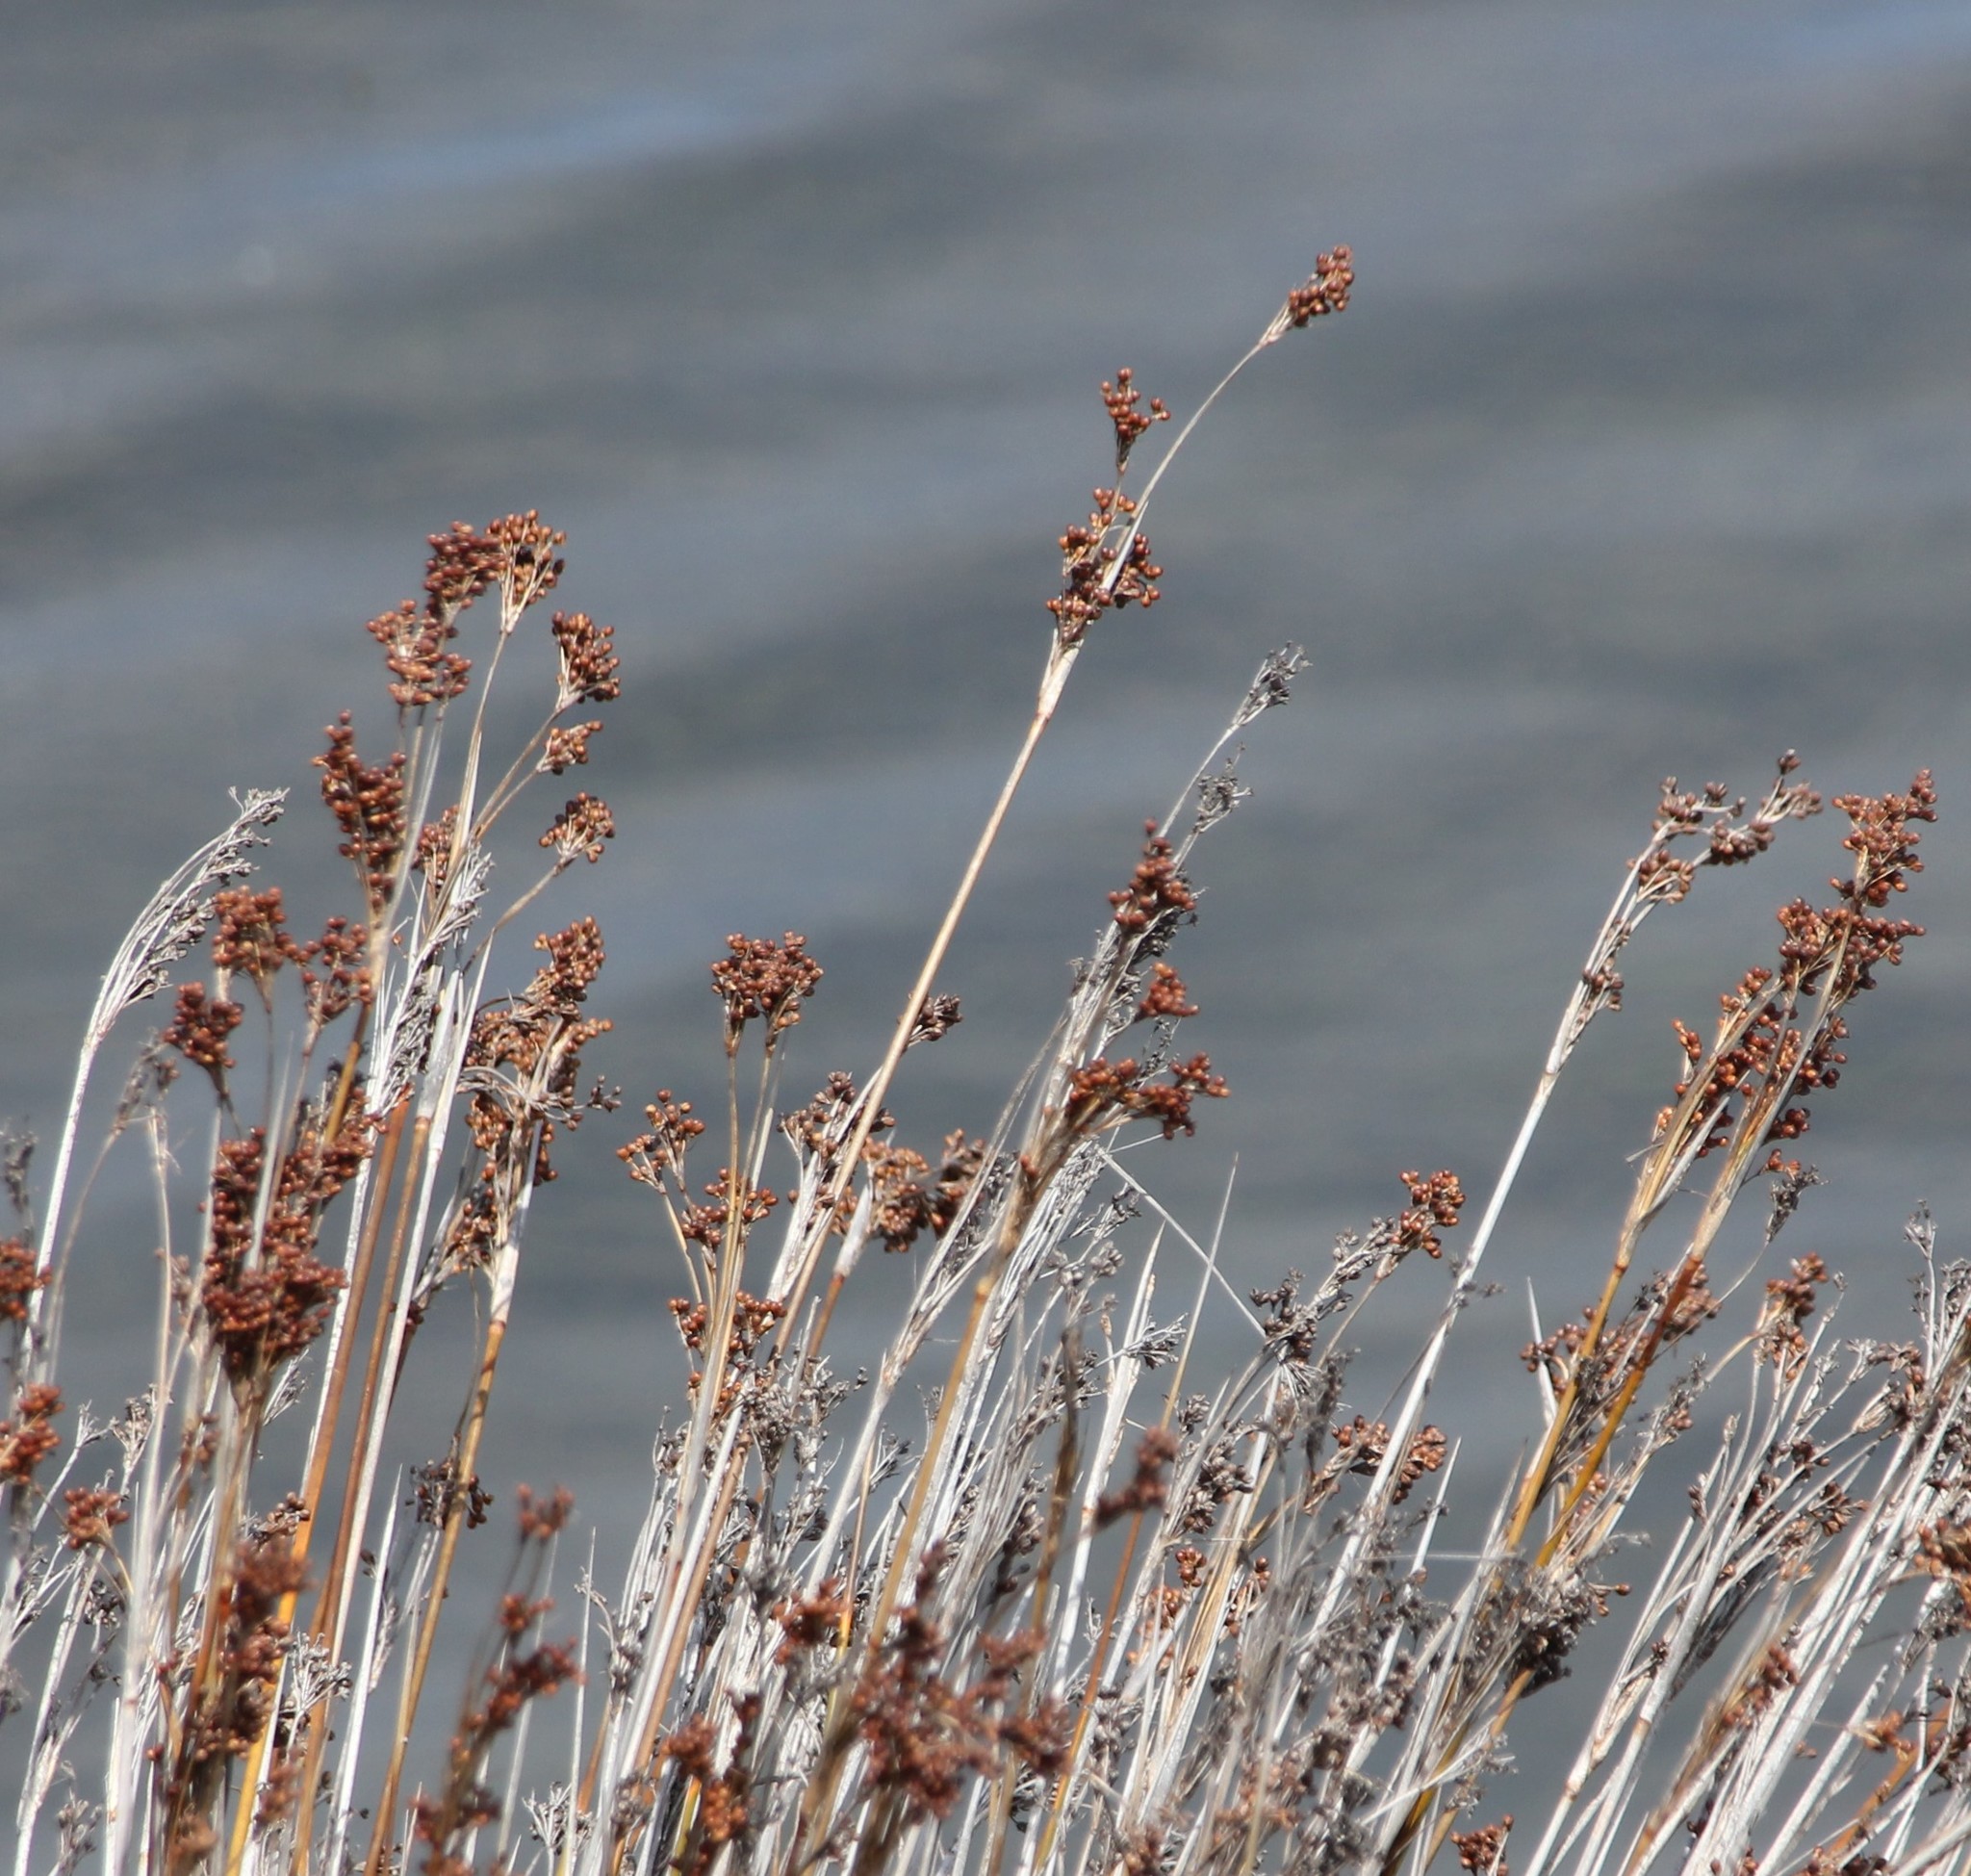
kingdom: Plantae
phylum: Tracheophyta
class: Liliopsida
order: Poales
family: Juncaceae
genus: Juncus
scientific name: Juncus acutus
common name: Sharp rush
